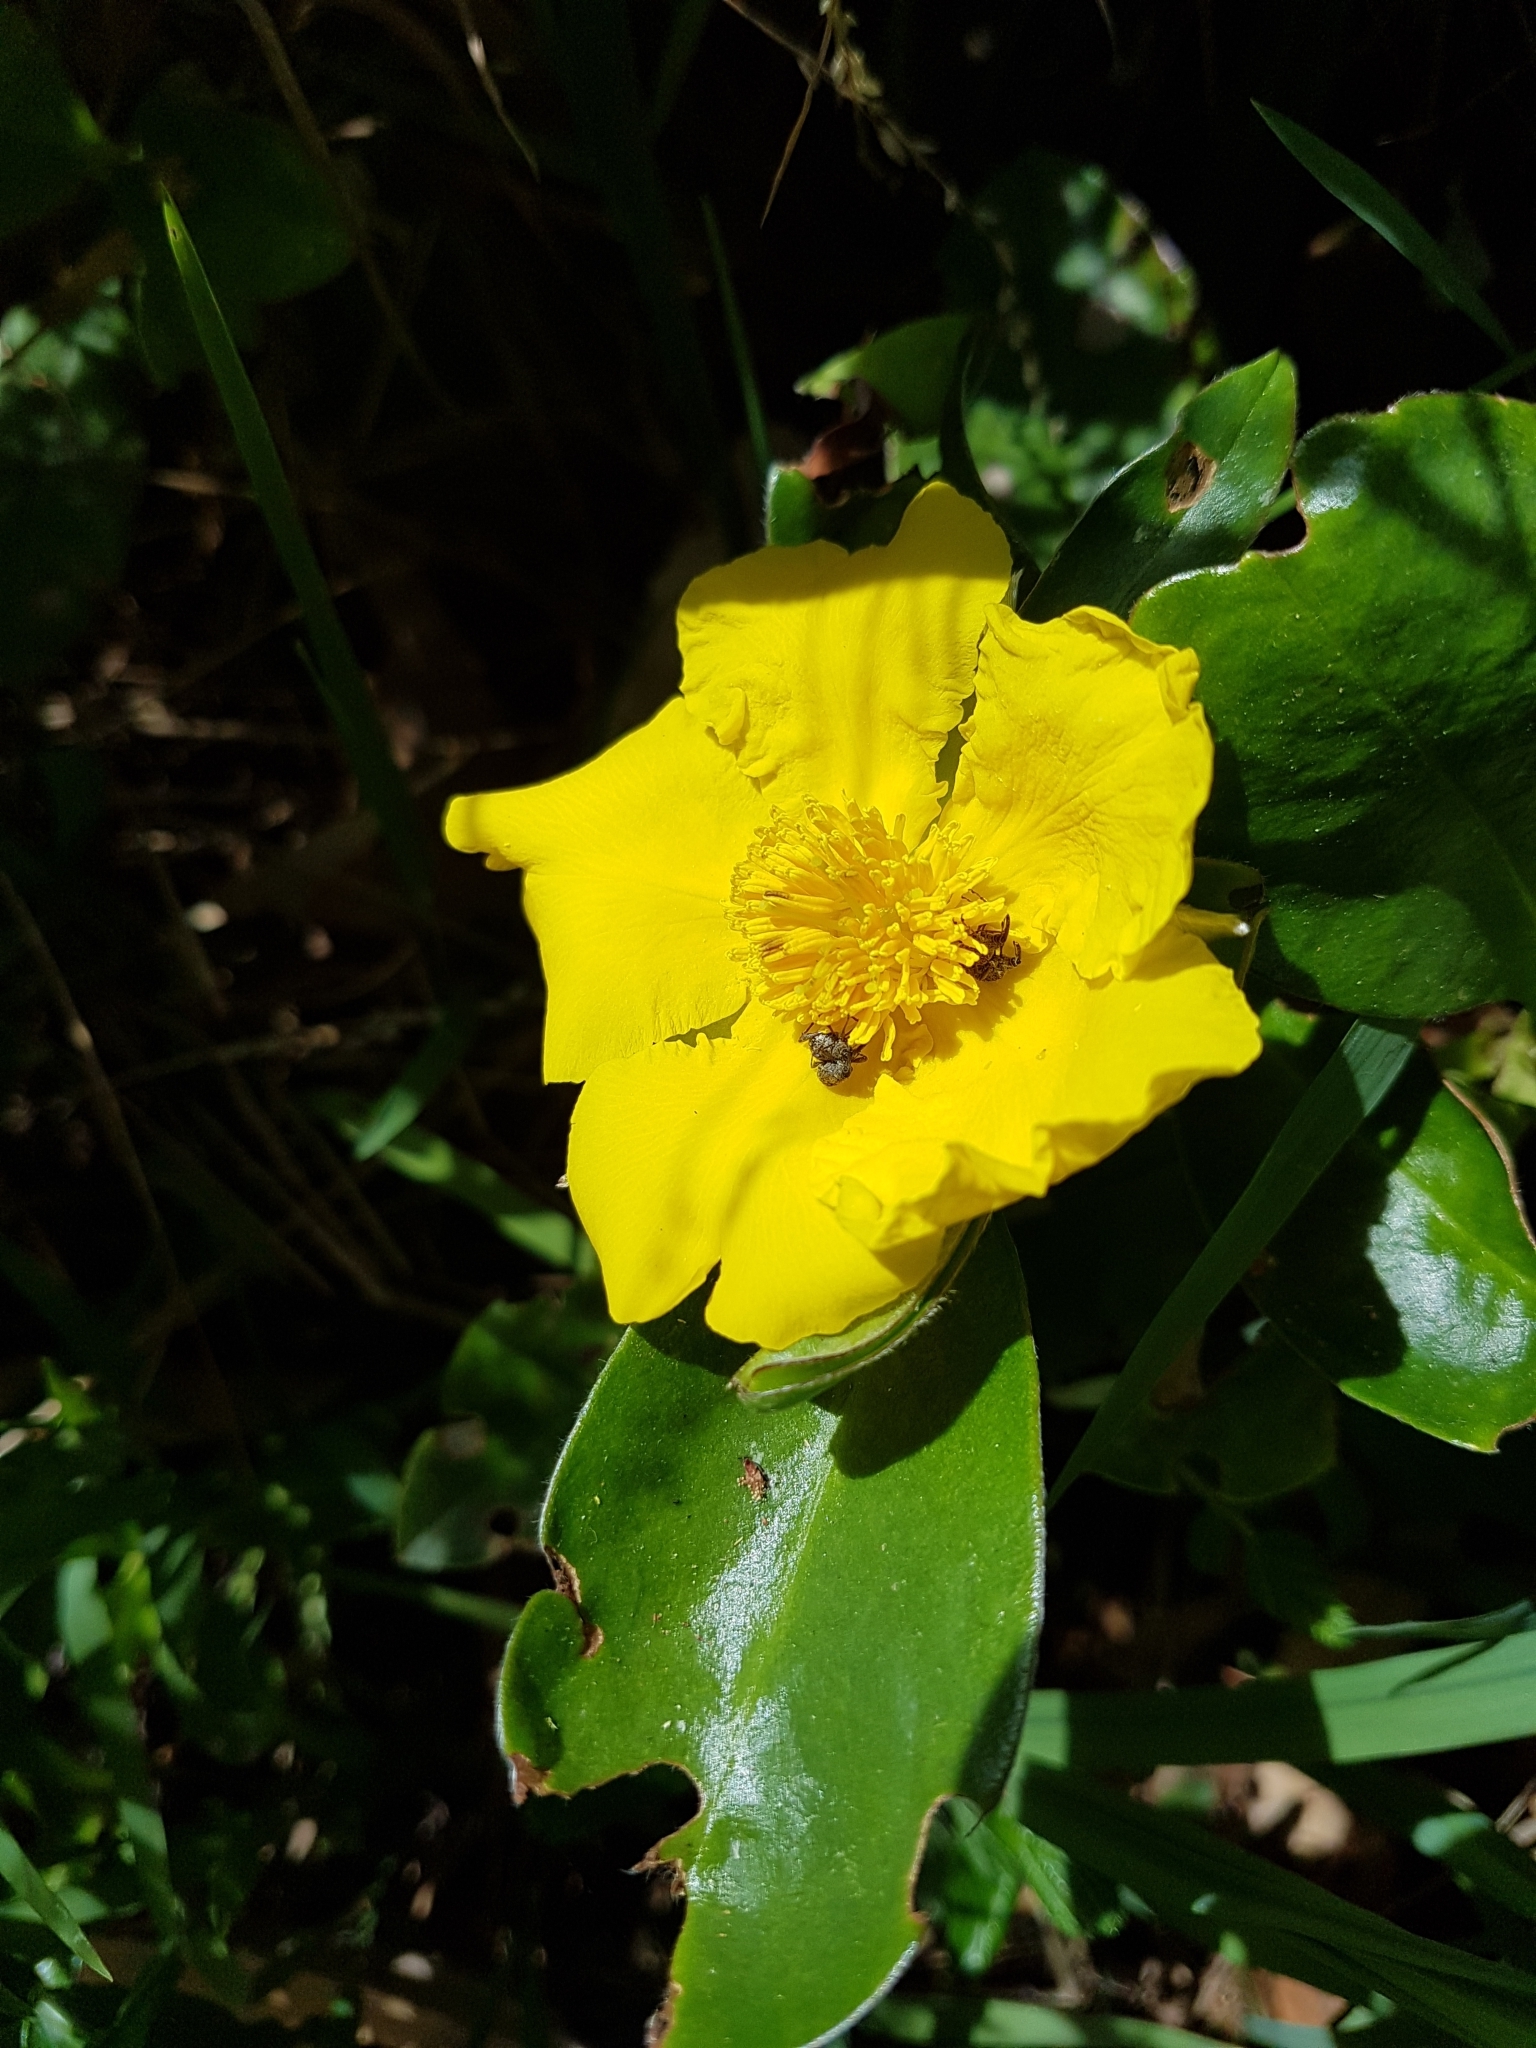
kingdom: Plantae
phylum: Tracheophyta
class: Magnoliopsida
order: Dilleniales
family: Dilleniaceae
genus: Hibbertia
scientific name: Hibbertia scandens
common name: Climbing guinea-flower
